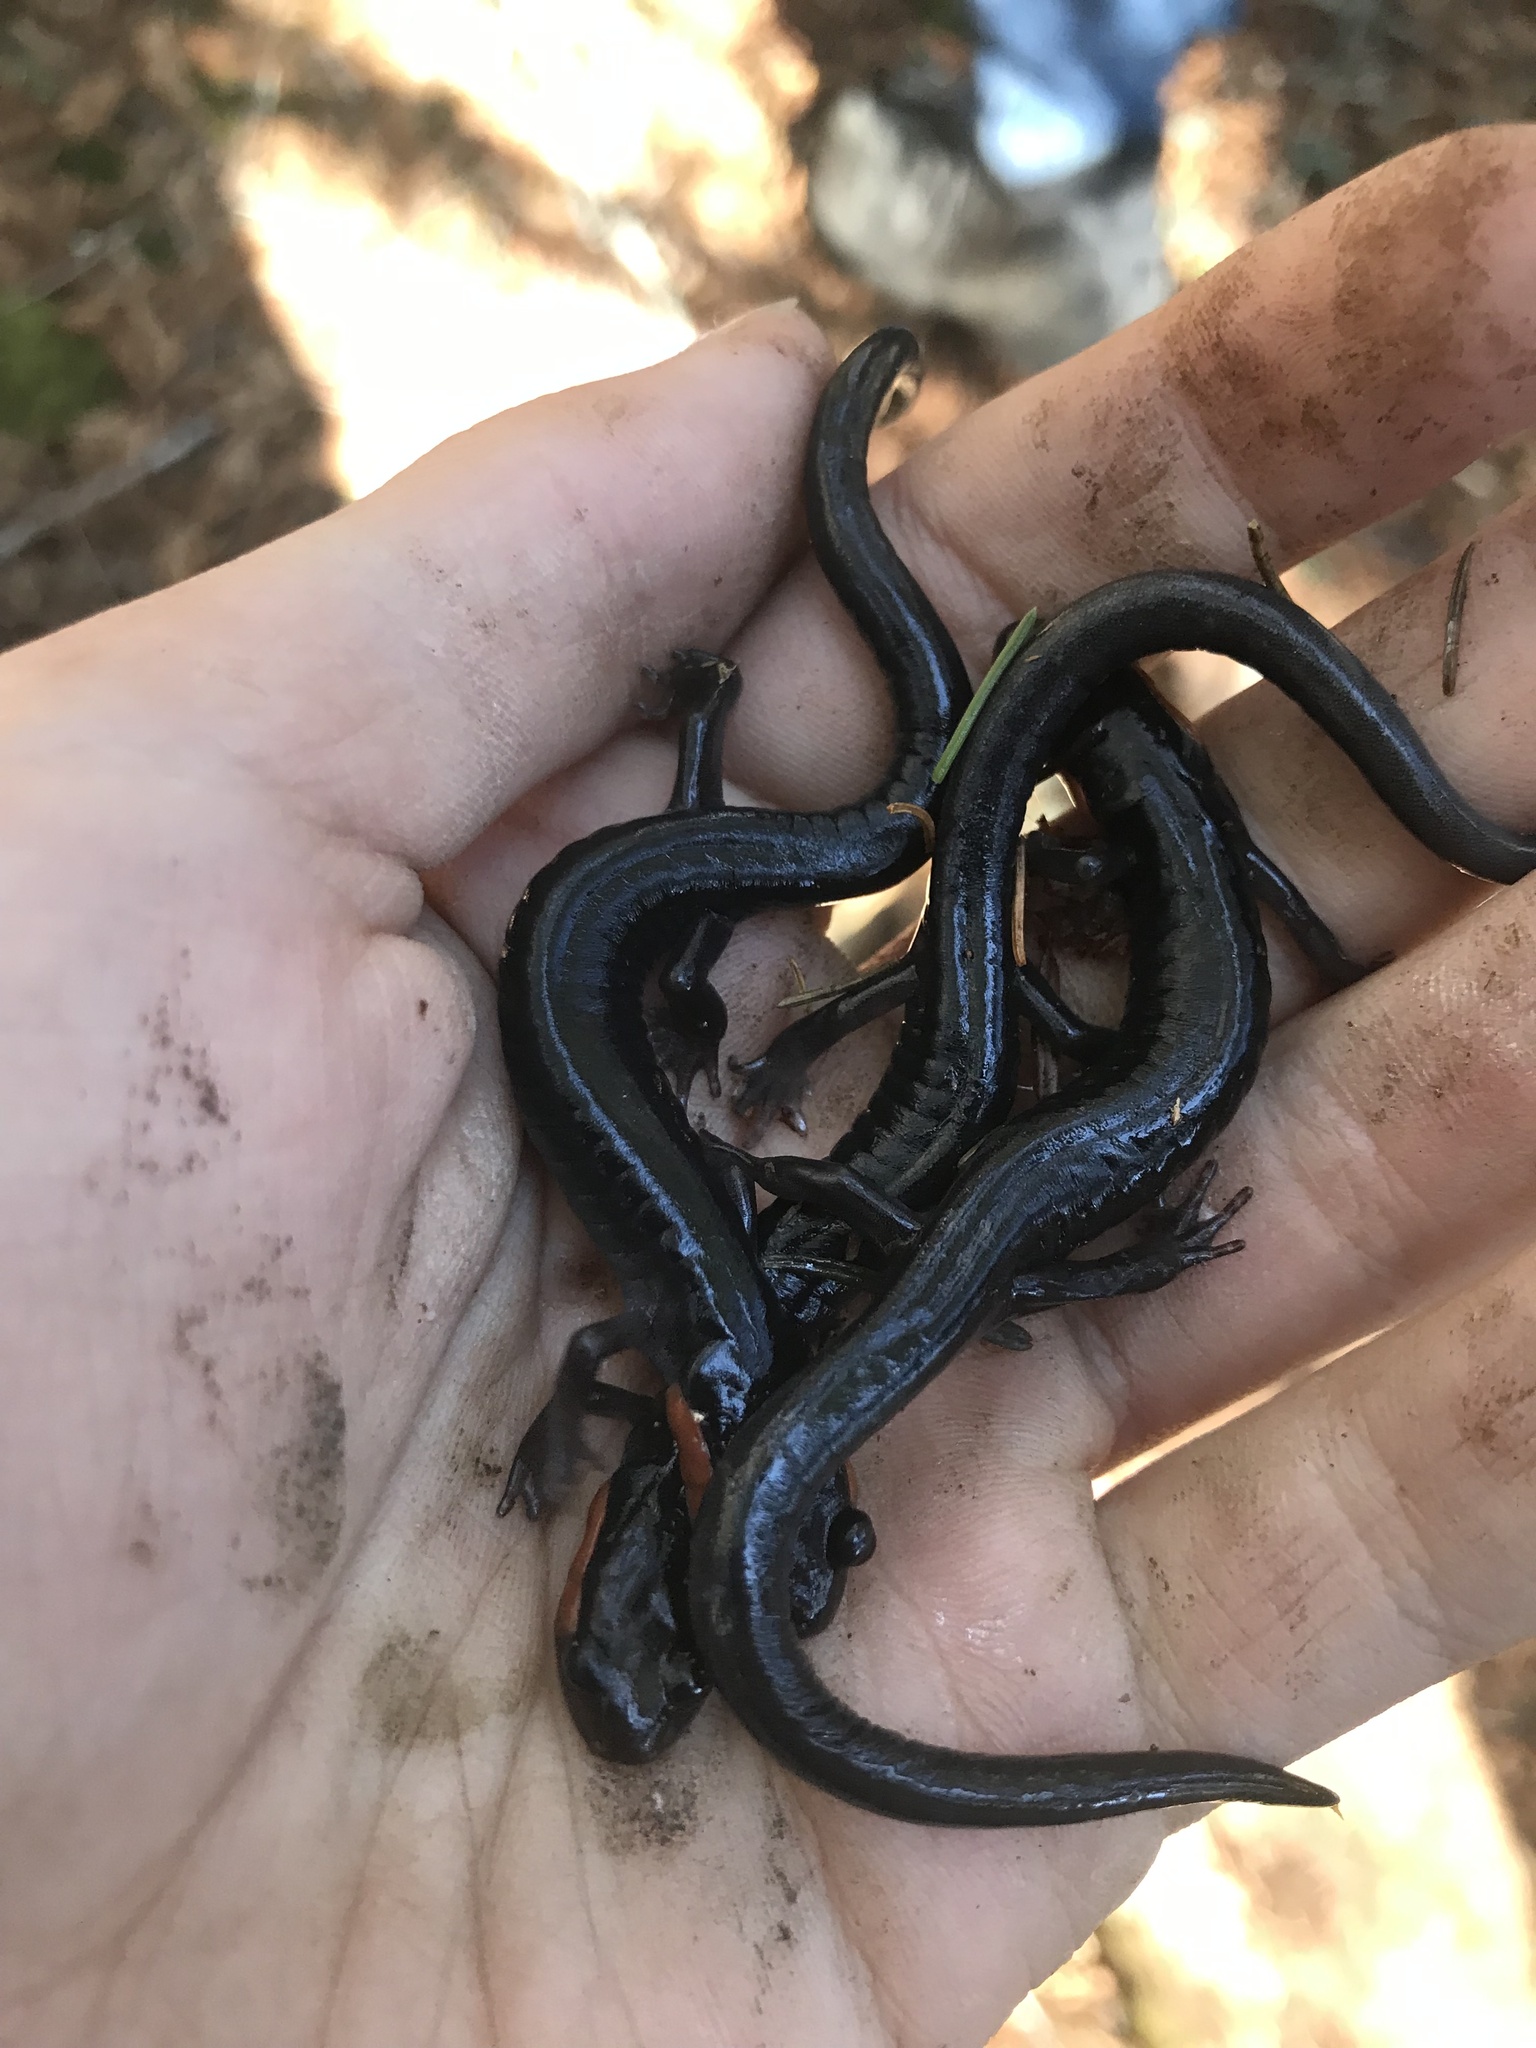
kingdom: Animalia
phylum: Chordata
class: Amphibia
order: Caudata
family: Plethodontidae
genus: Plethodon
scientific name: Plethodon jordani
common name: Red-cheeked salamander
